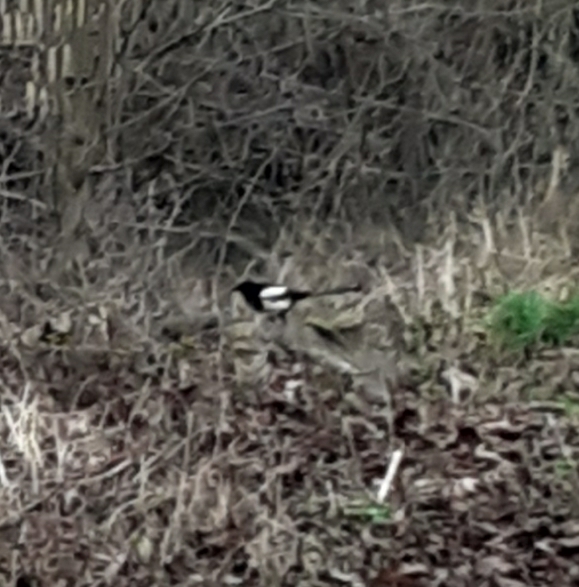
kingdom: Animalia
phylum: Chordata
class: Aves
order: Passeriformes
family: Corvidae
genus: Pica
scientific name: Pica pica
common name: Eurasian magpie
